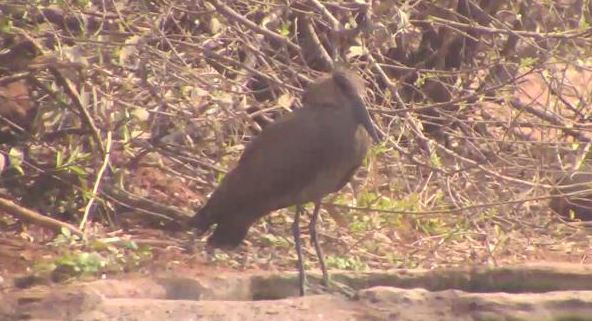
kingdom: Animalia
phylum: Chordata
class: Aves
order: Pelecaniformes
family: Scopidae
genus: Scopus
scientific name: Scopus umbretta
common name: Hamerkop
